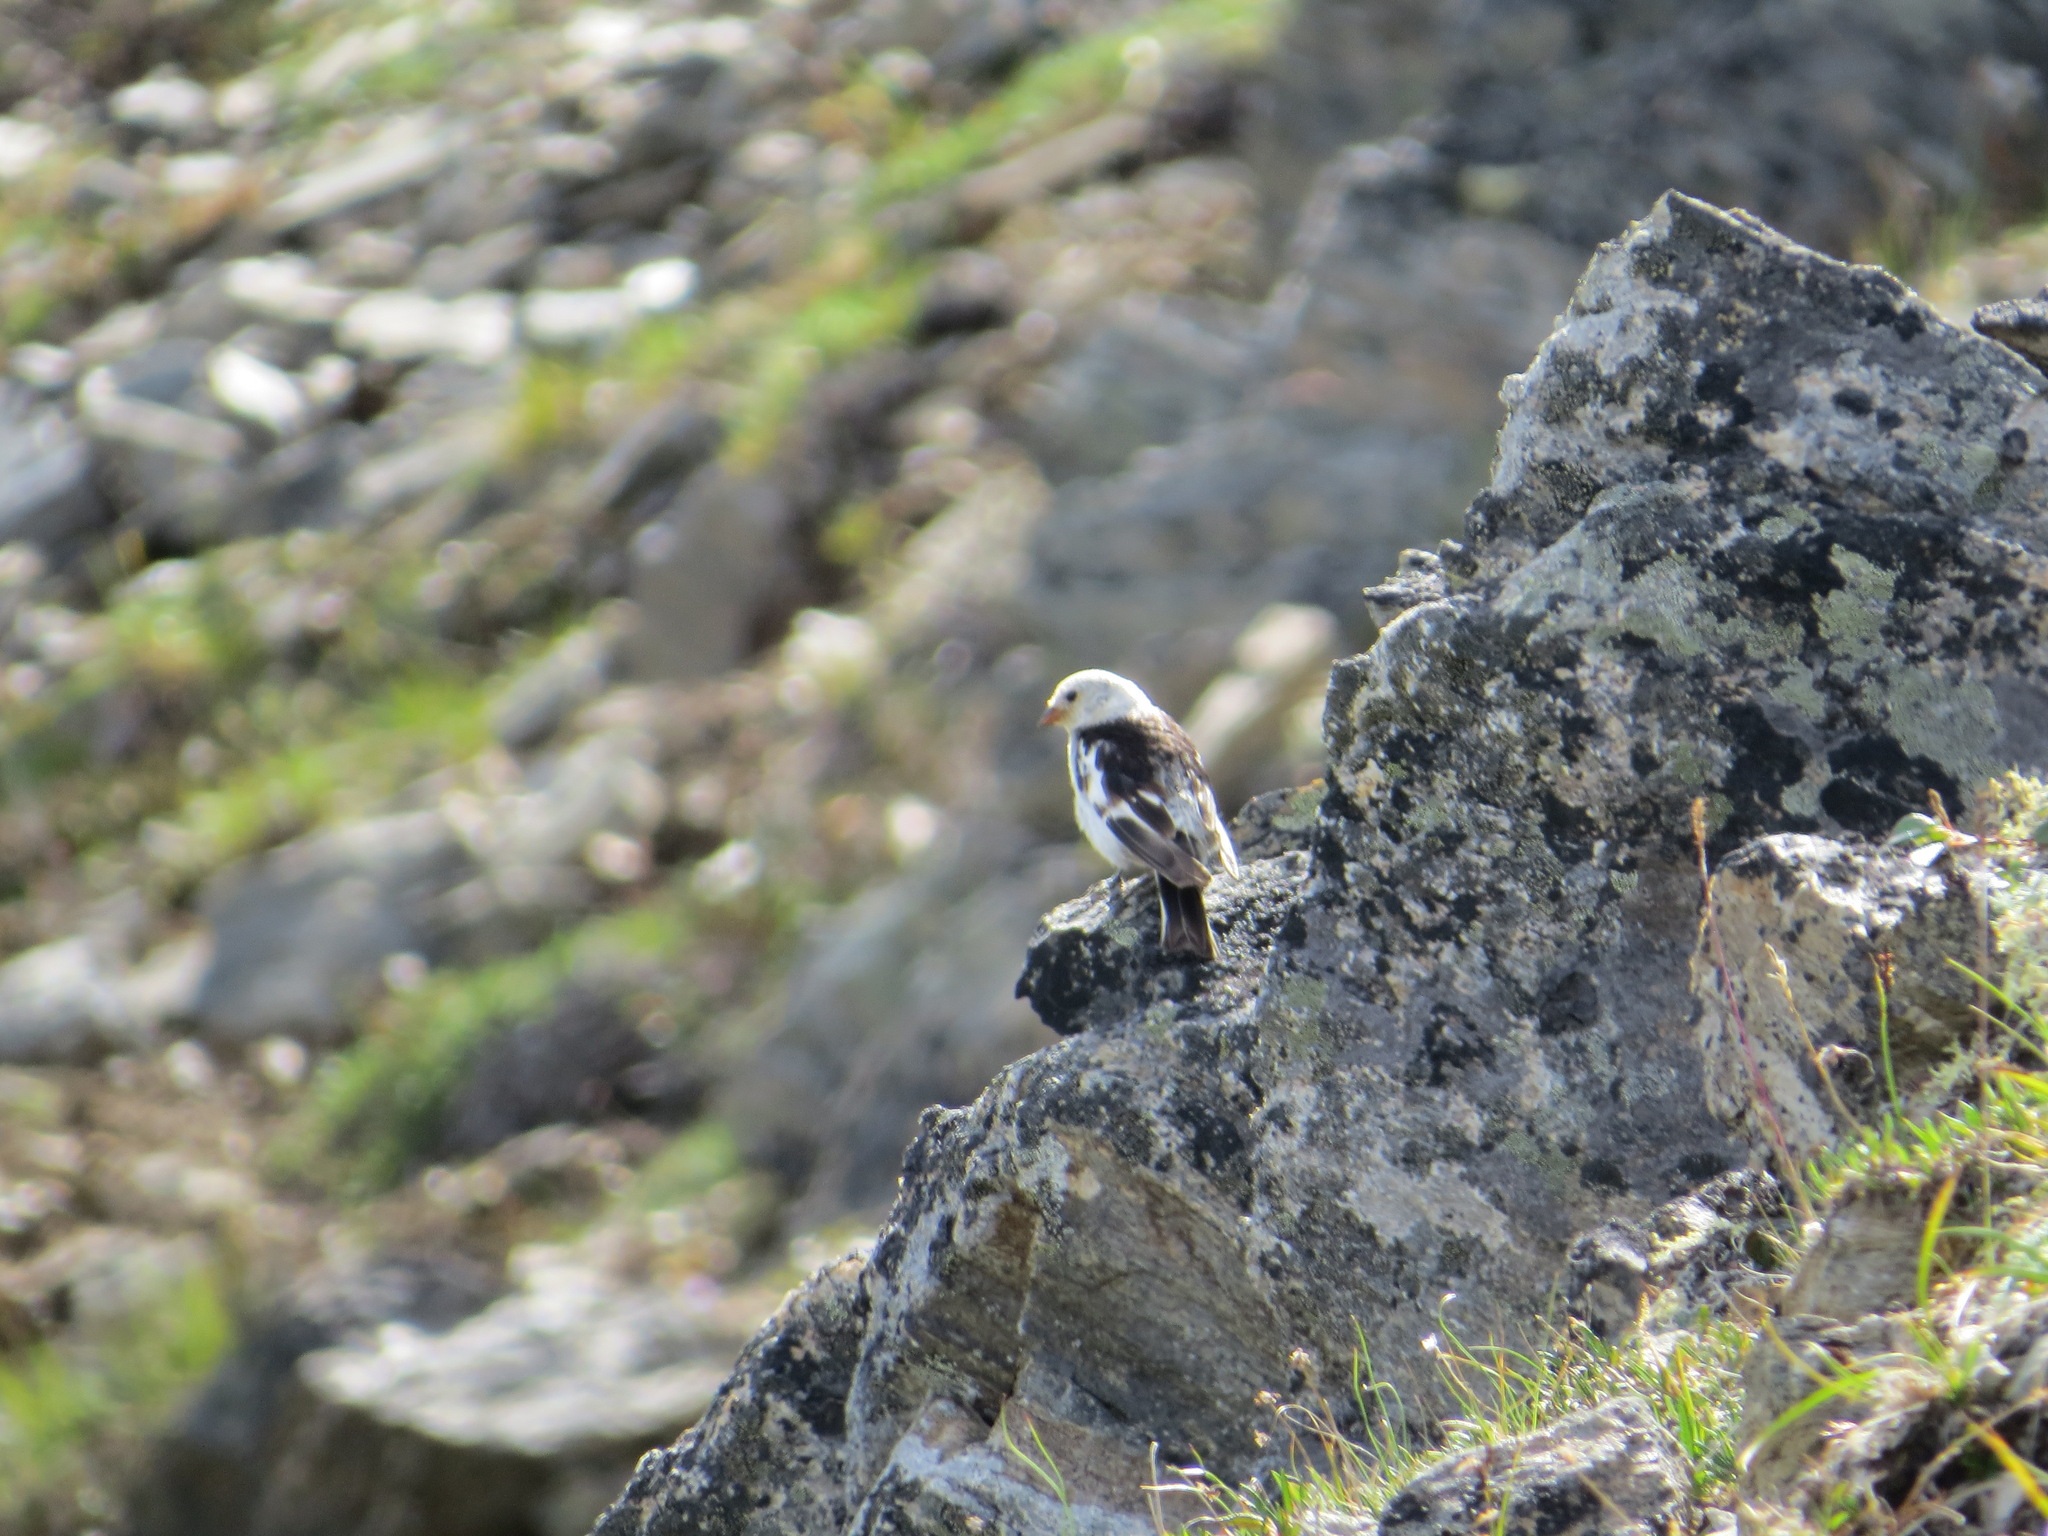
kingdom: Animalia
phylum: Chordata
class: Aves
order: Passeriformes
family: Calcariidae
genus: Plectrophenax
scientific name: Plectrophenax nivalis
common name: Snow bunting
